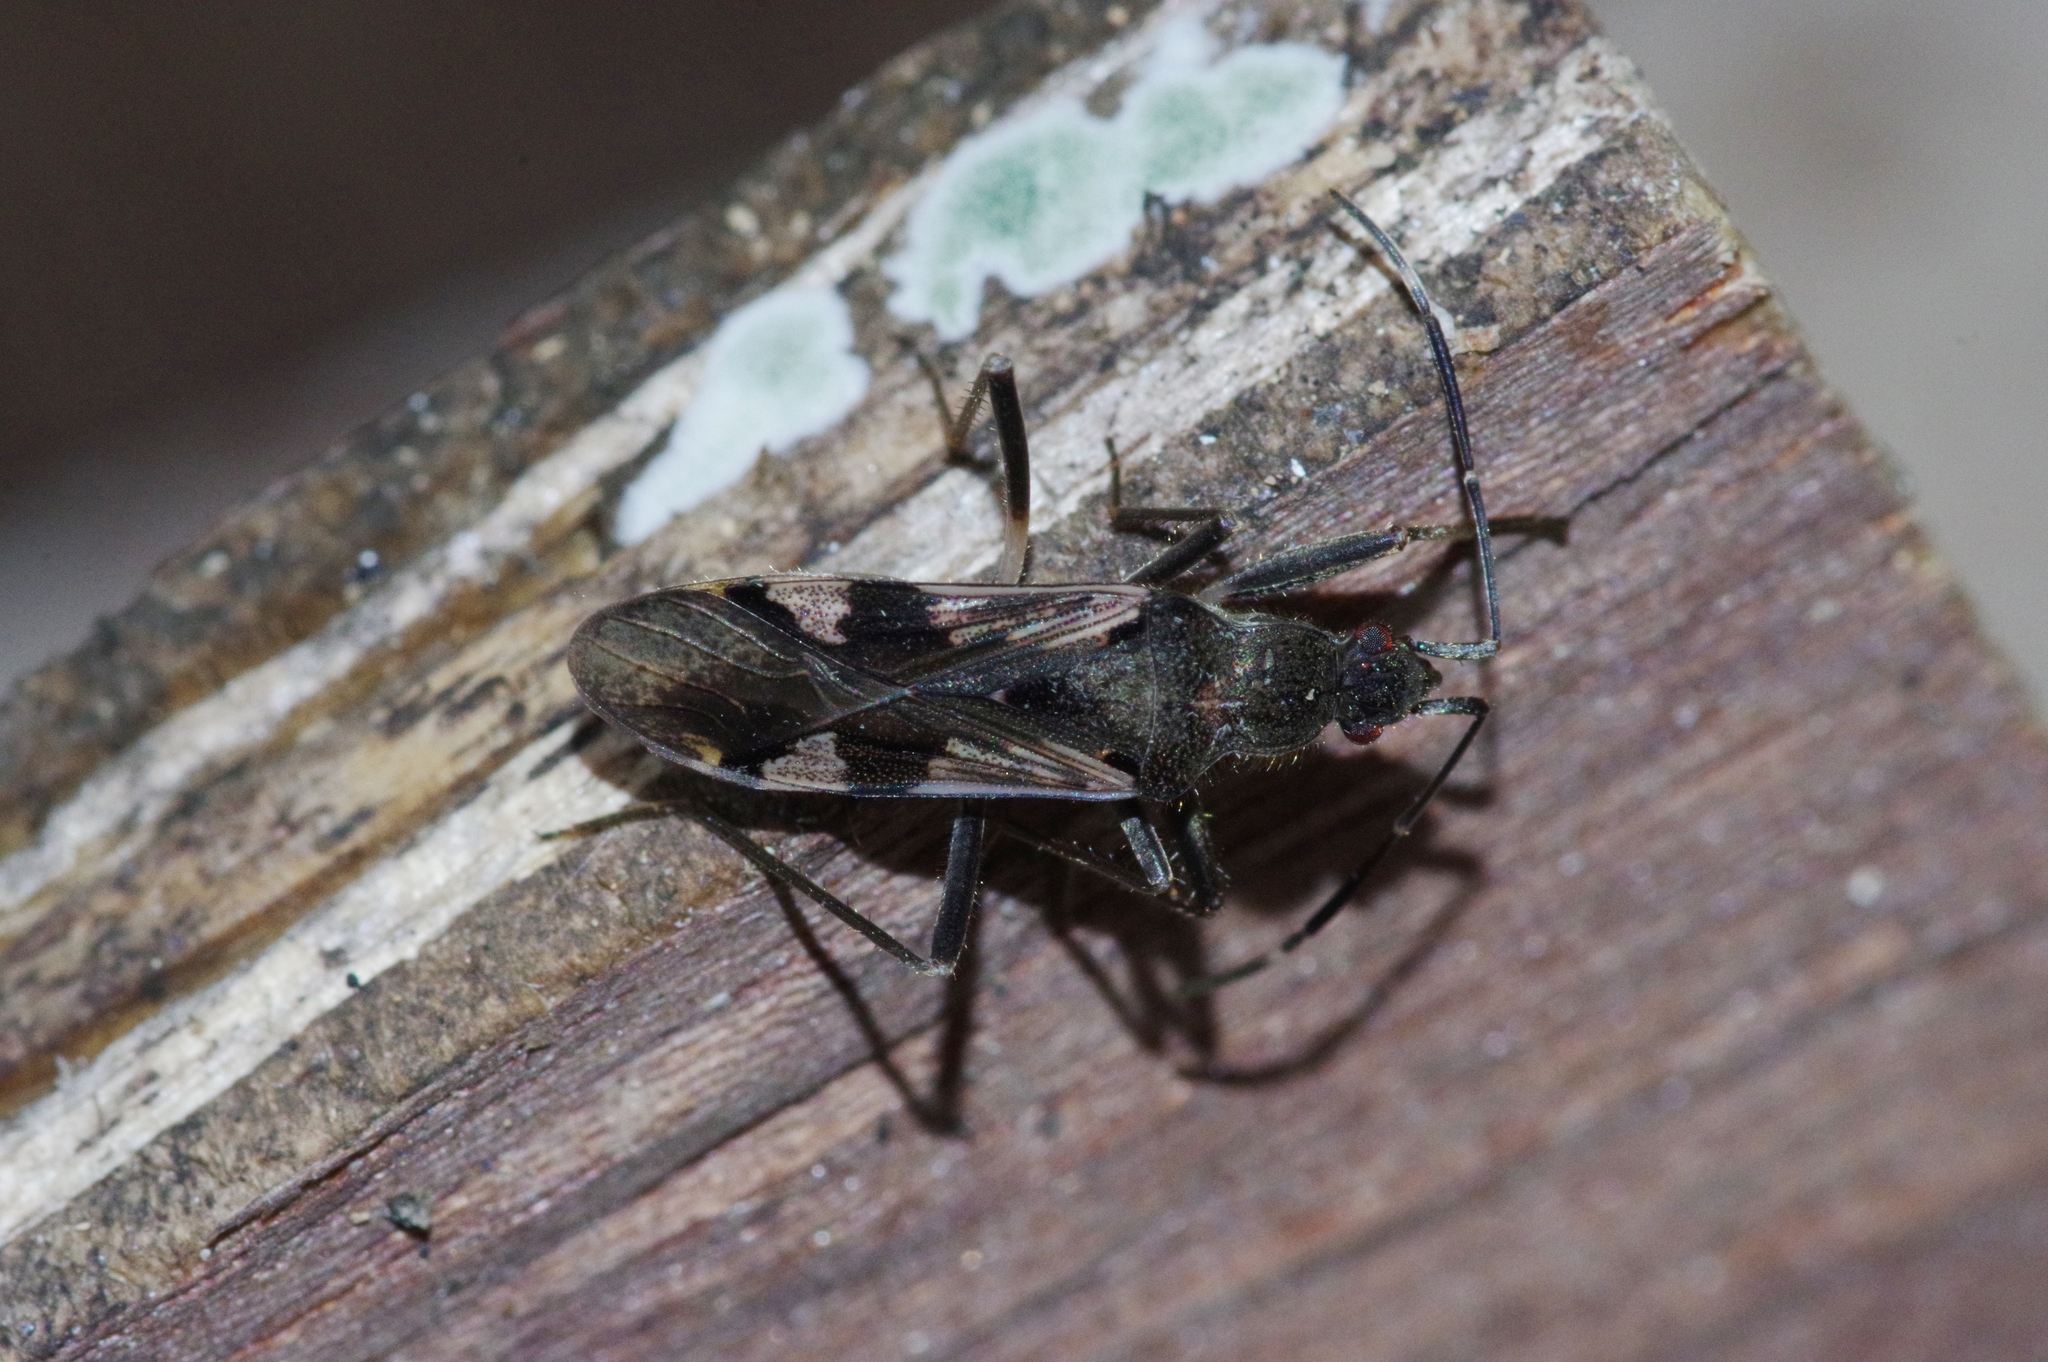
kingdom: Animalia
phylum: Arthropoda
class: Insecta
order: Hemiptera
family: Rhyparochromidae
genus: Metochus
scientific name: Metochus uniguttatus
